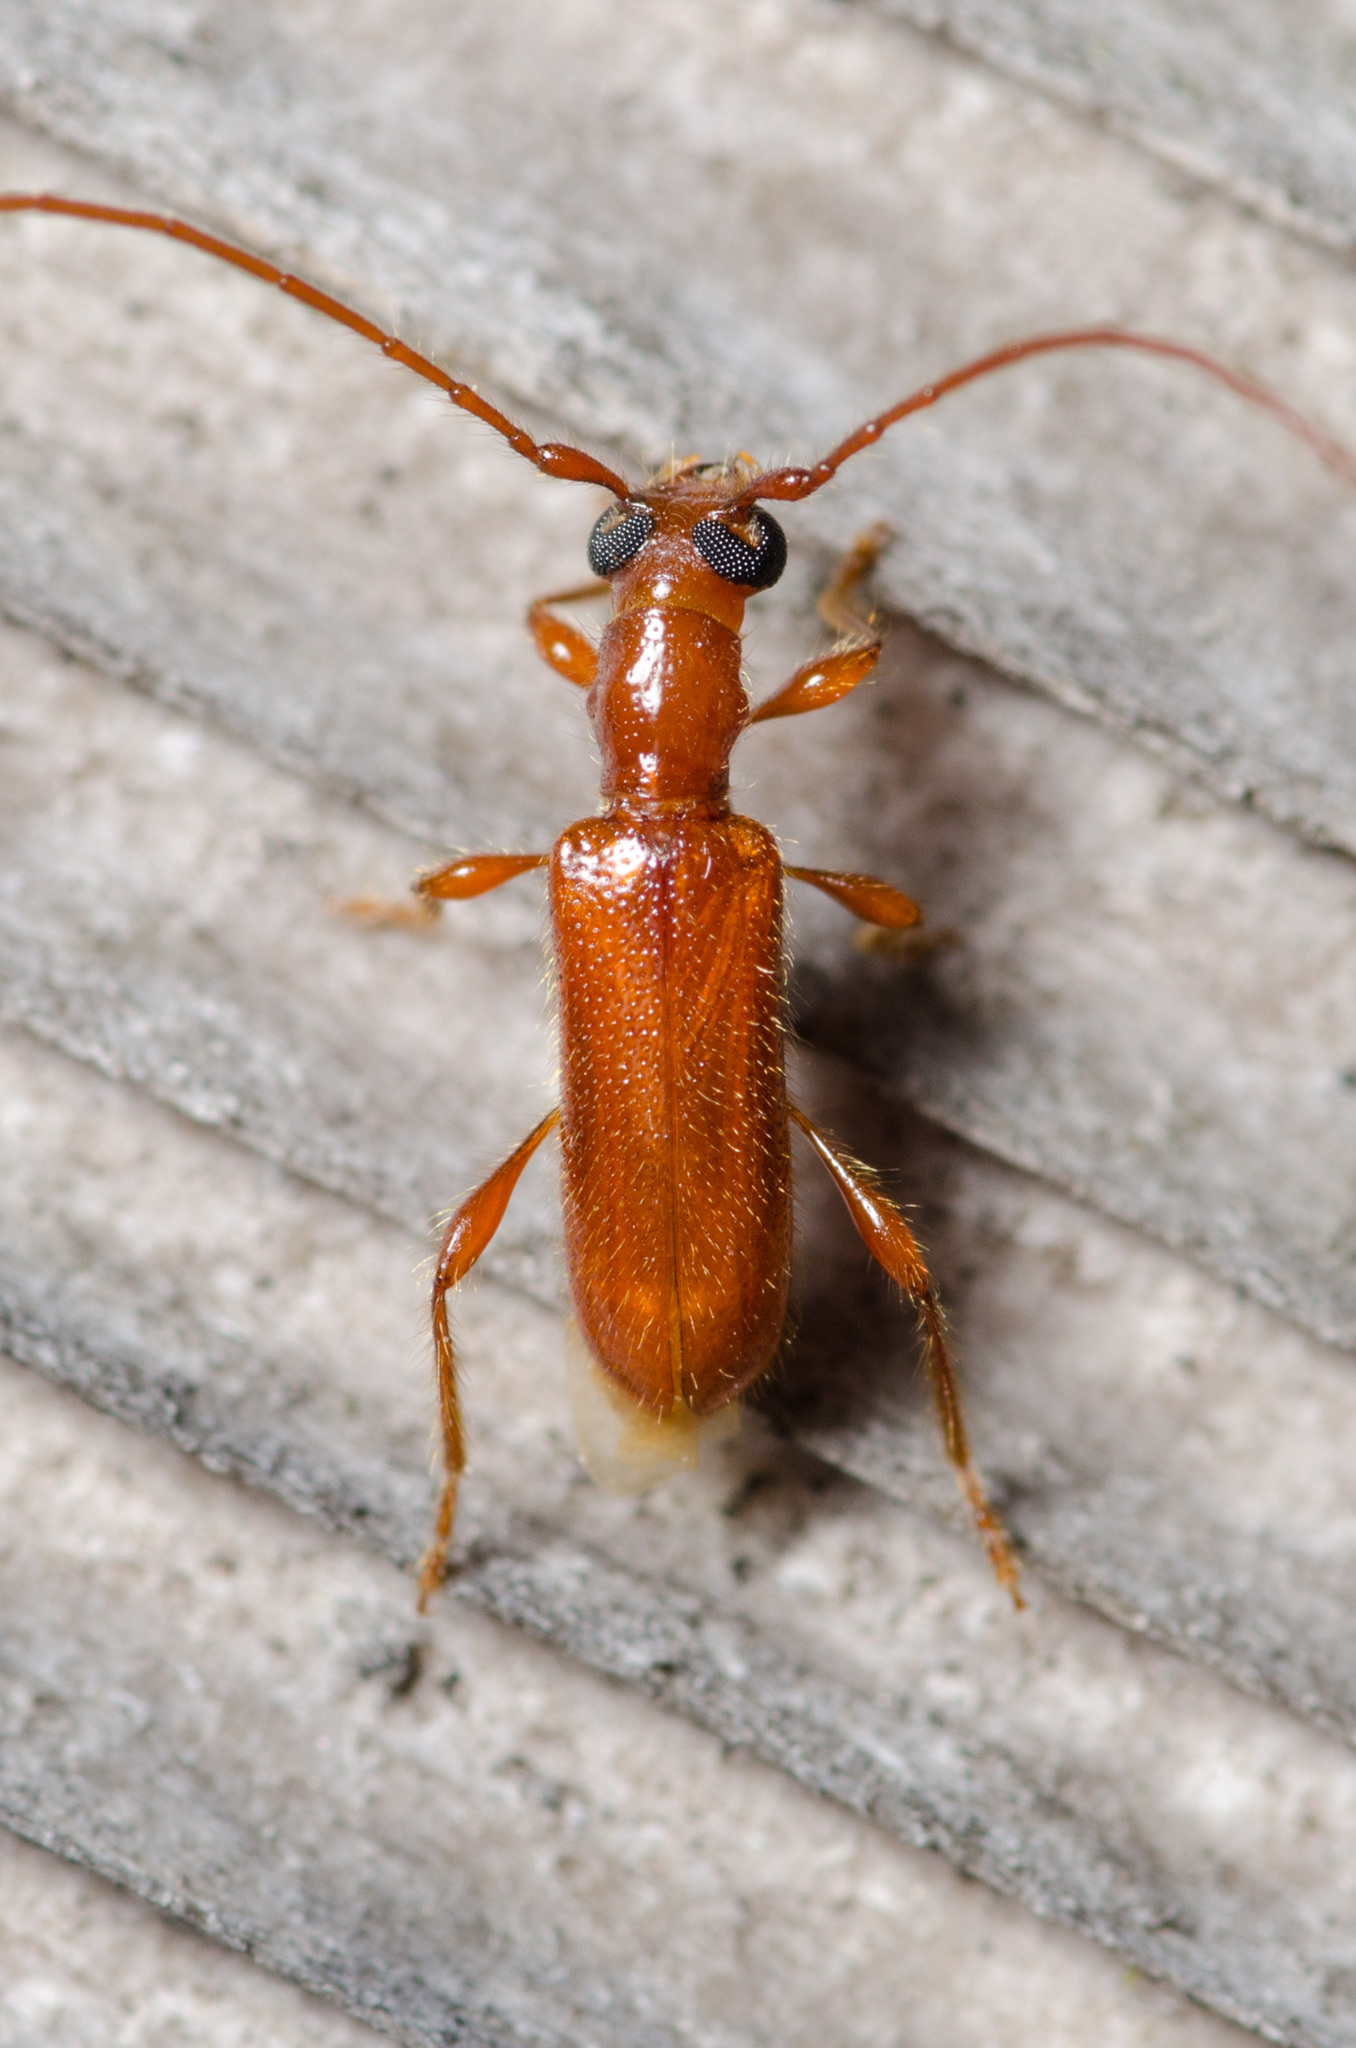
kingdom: Animalia
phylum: Arthropoda
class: Insecta
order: Coleoptera
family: Cerambycidae
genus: Obrium
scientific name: Obrium rufulum
